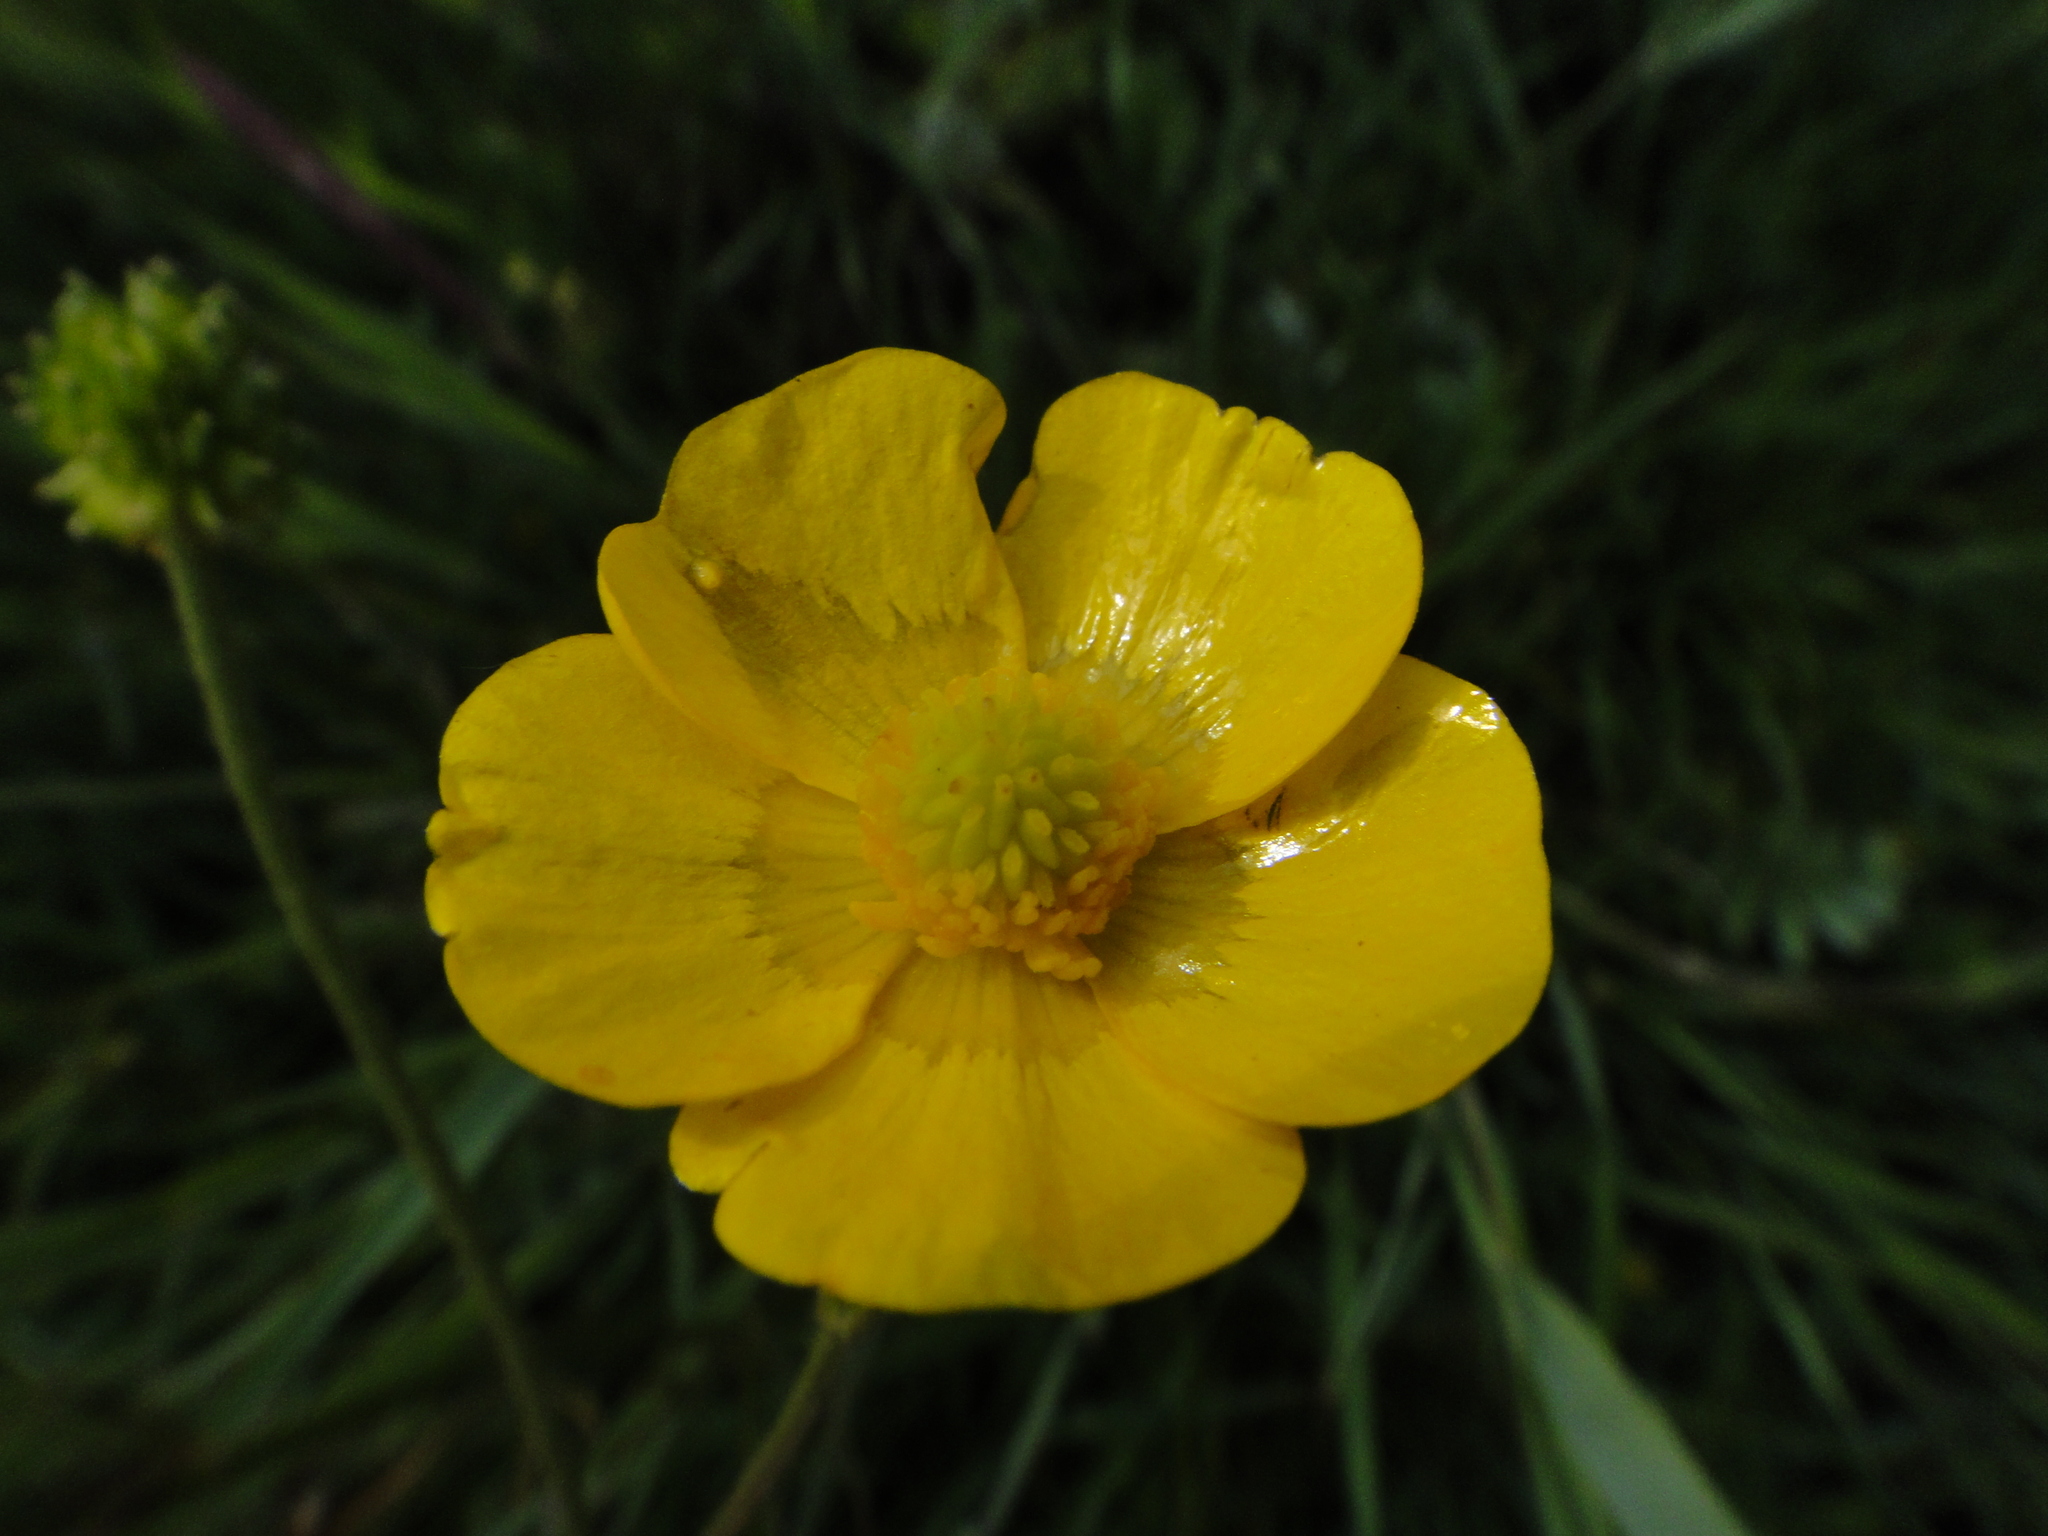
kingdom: Plantae
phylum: Tracheophyta
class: Magnoliopsida
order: Ranunculales
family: Ranunculaceae
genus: Ranunculus
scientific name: Ranunculus polyanthemos
